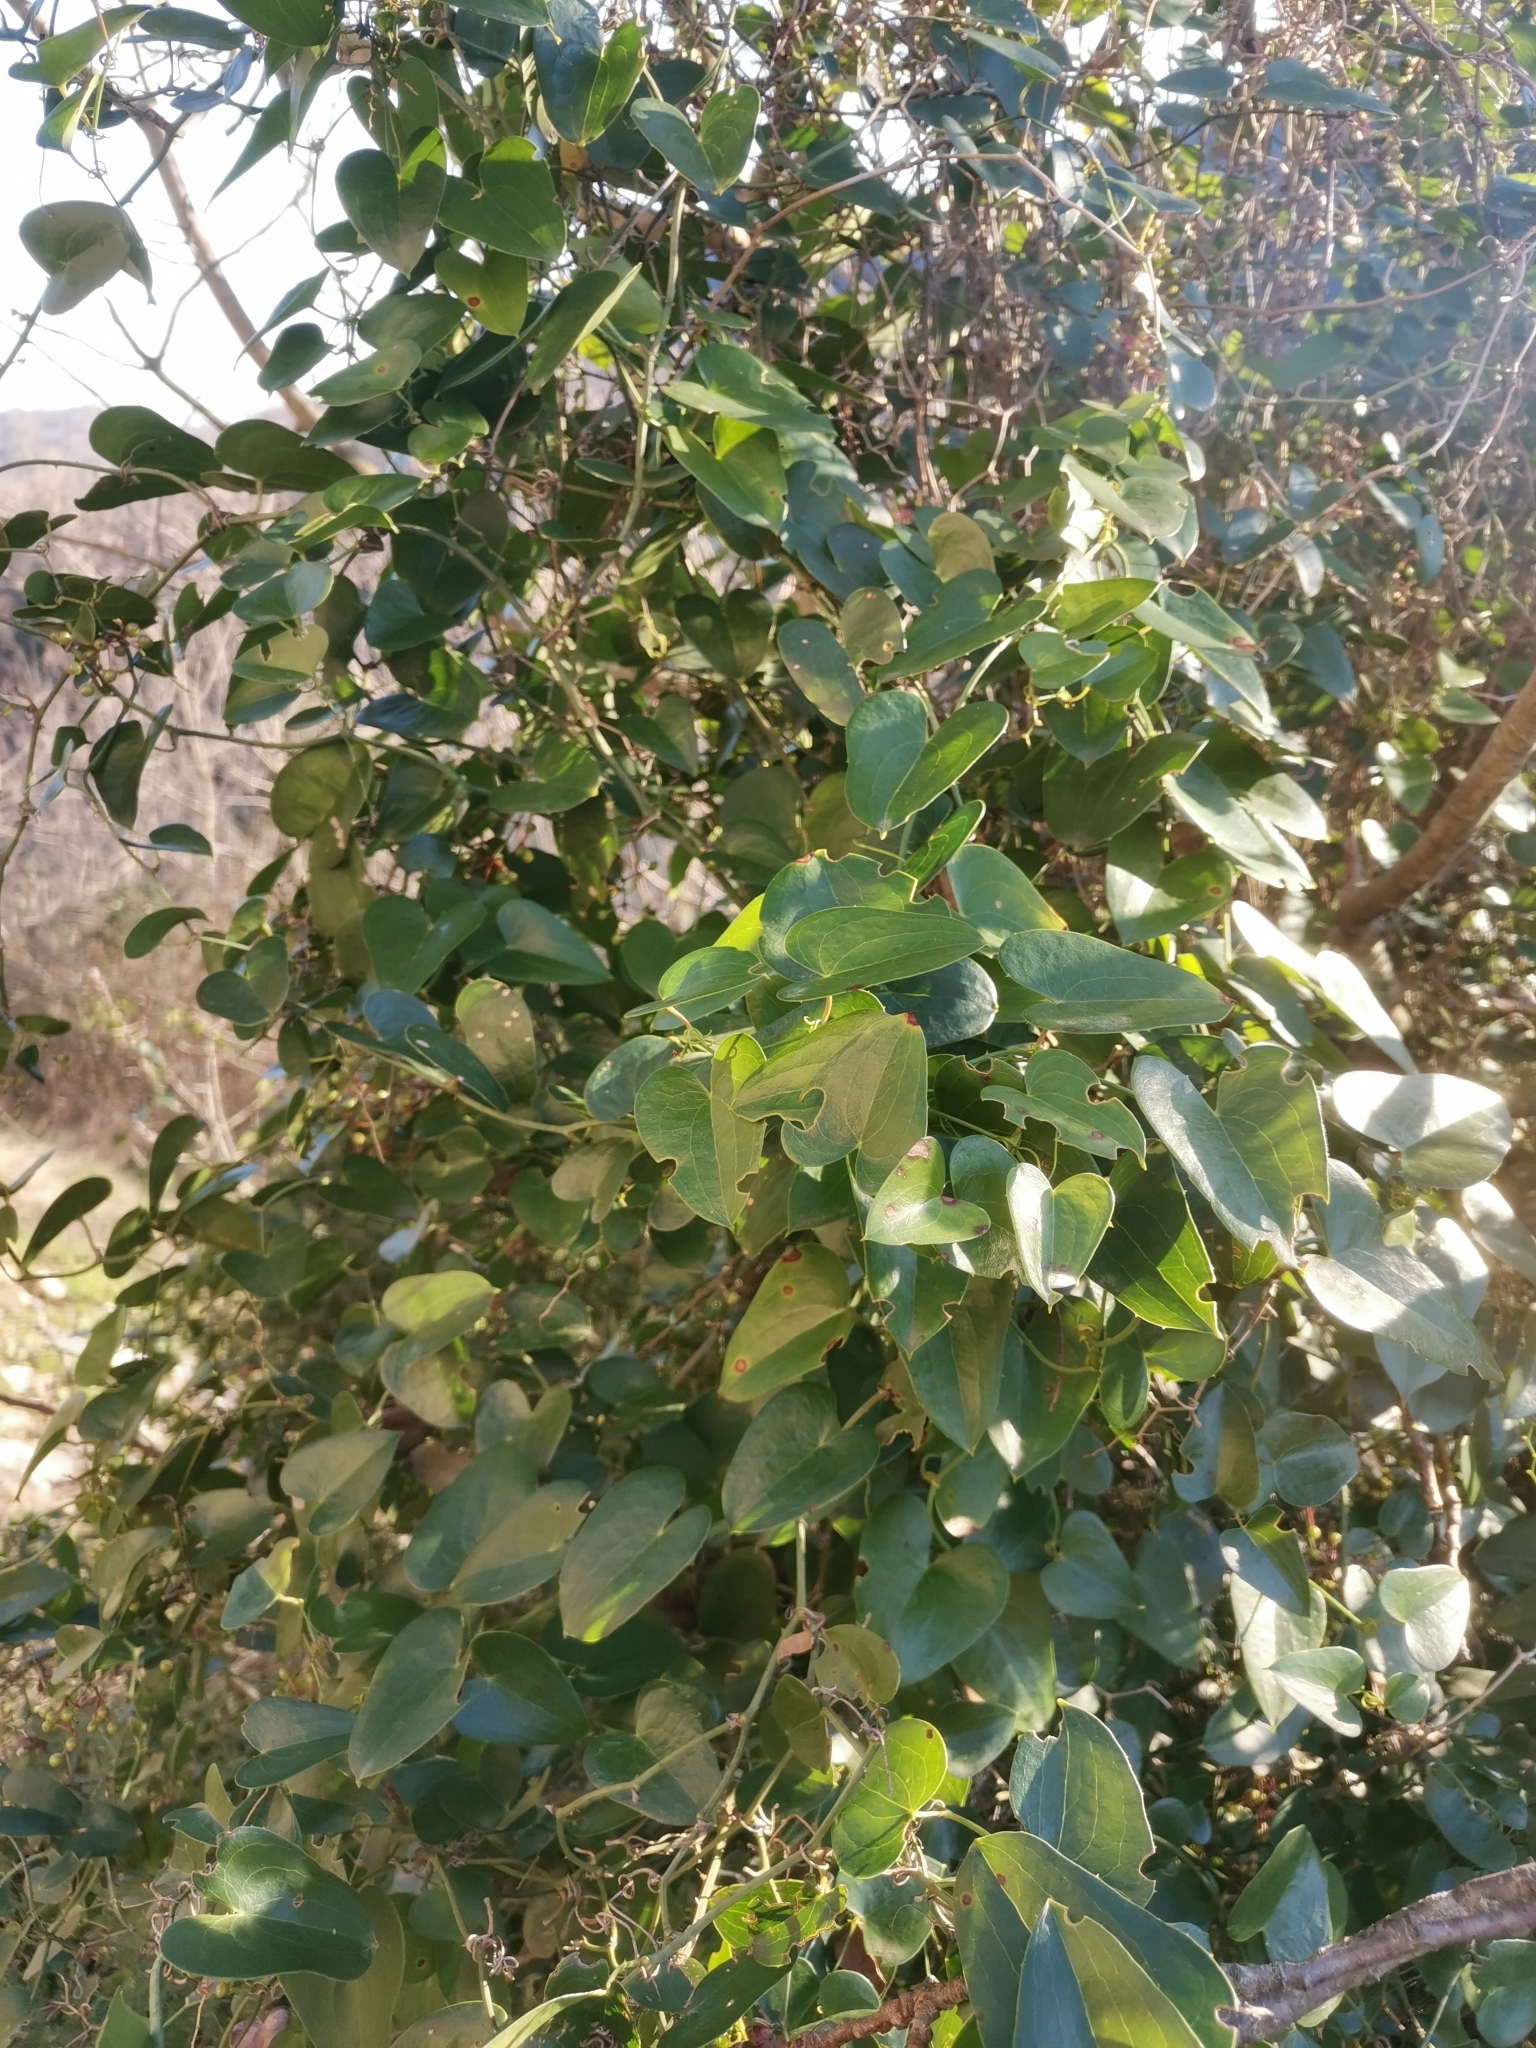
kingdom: Plantae
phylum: Tracheophyta
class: Liliopsida
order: Liliales
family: Smilacaceae
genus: Smilax
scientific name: Smilax aspera
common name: Common smilax
